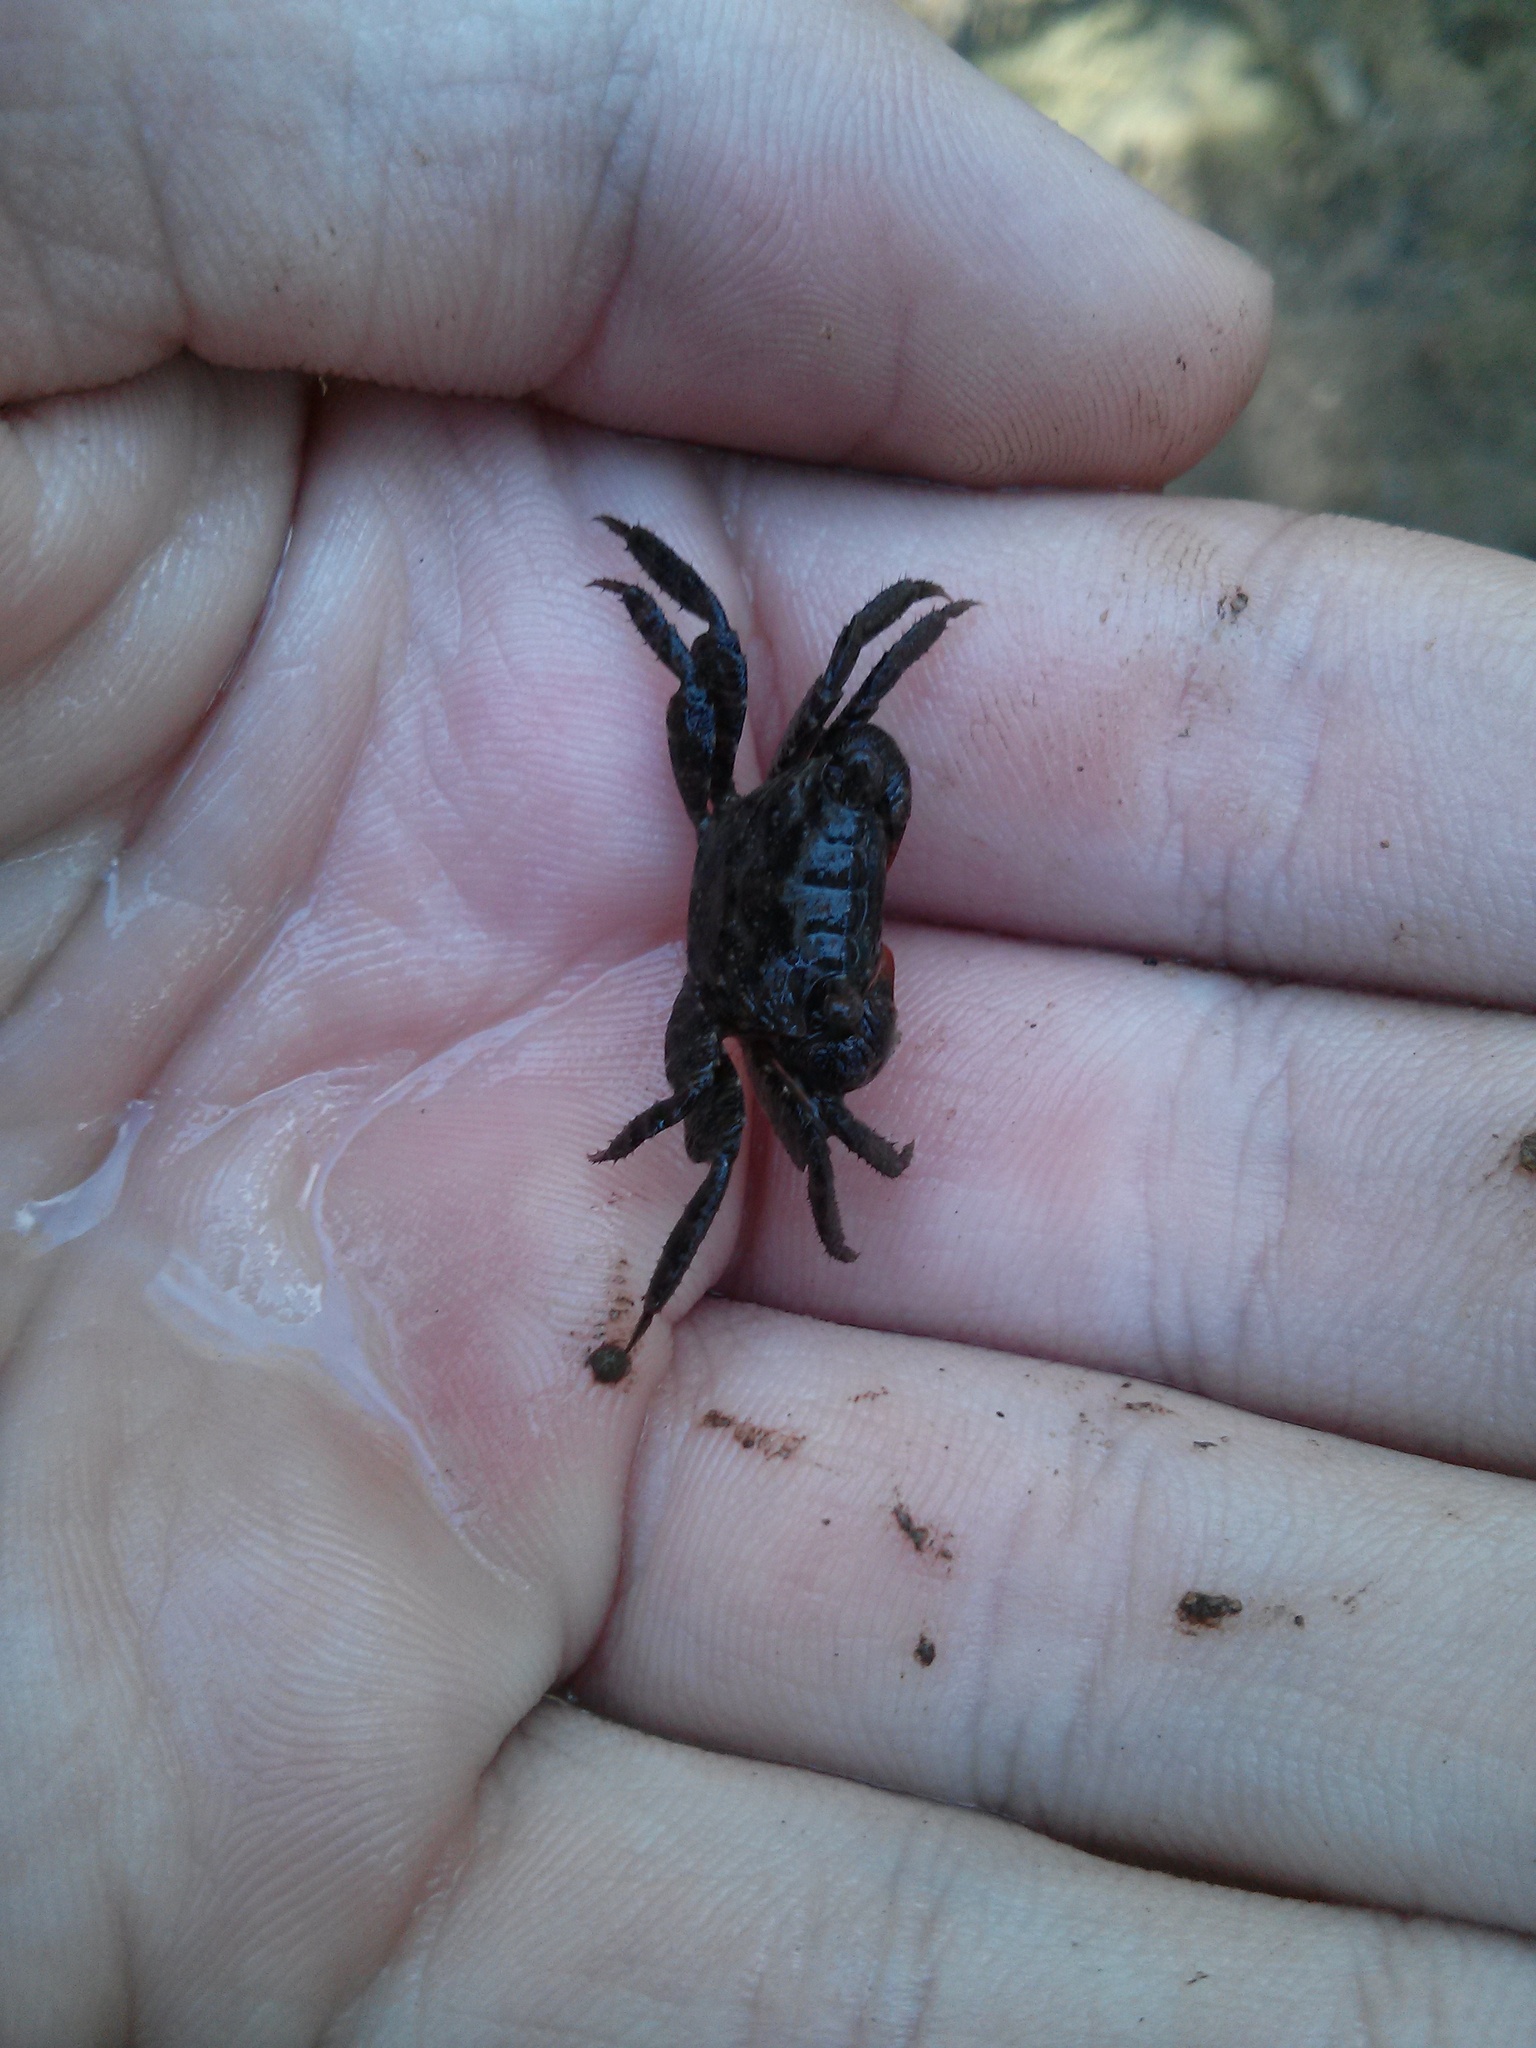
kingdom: Animalia
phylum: Arthropoda
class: Malacostraca
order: Decapoda
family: Sesarmidae
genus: Parasesarma
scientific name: Parasesarma erythodactylum
